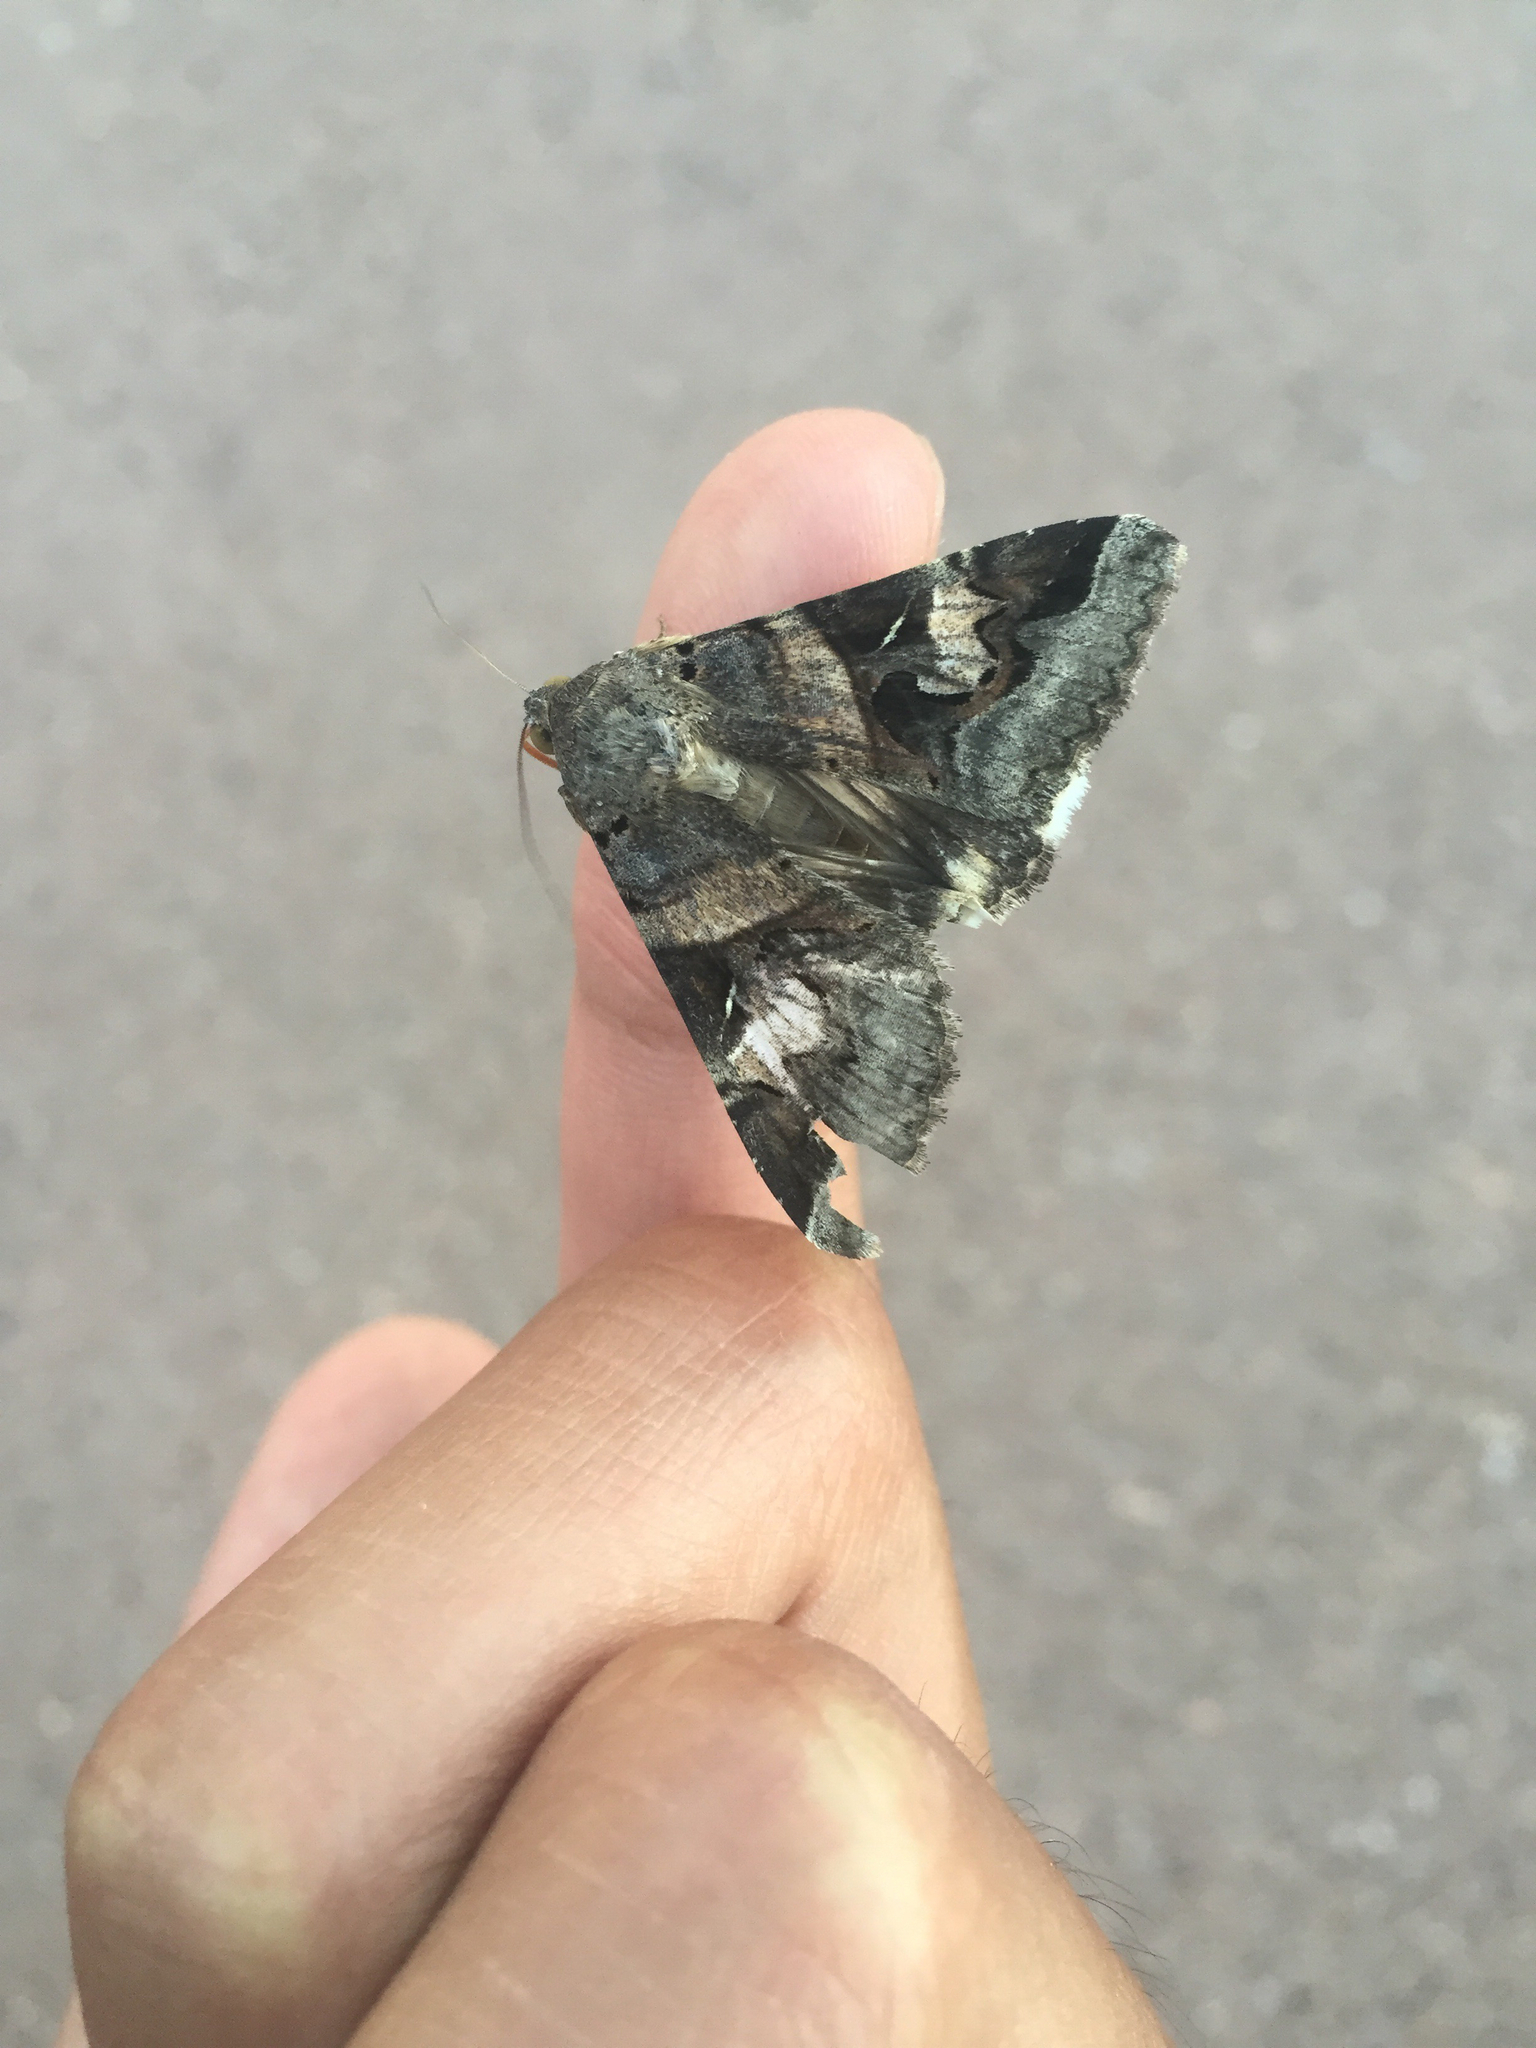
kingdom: Animalia
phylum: Arthropoda
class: Insecta
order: Lepidoptera
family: Erebidae
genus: Melipotis
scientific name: Melipotis indomita
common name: Moth
